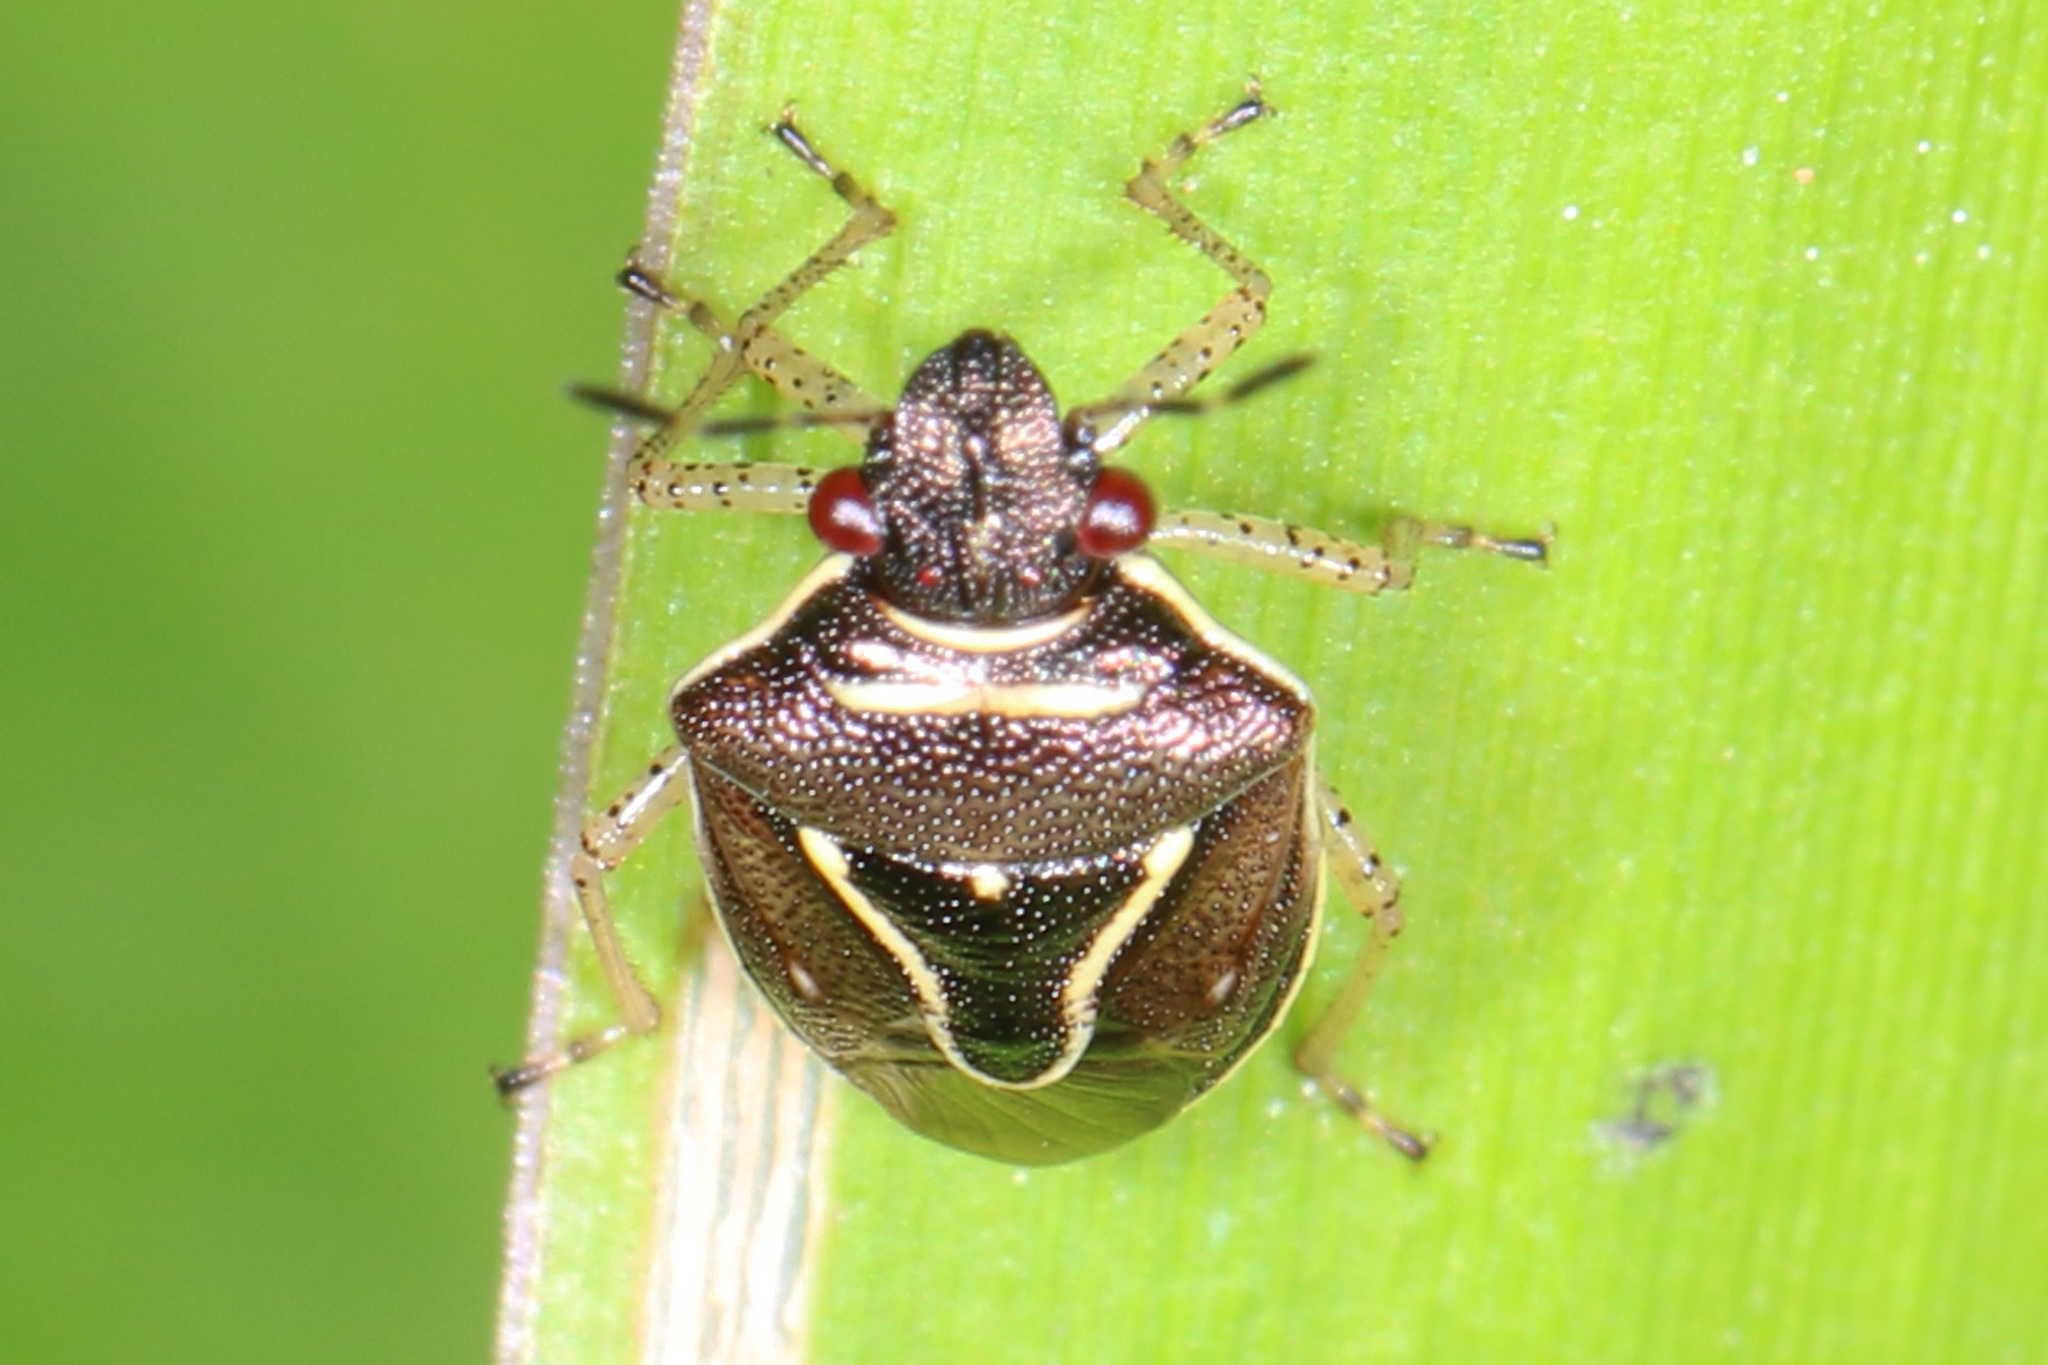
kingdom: Animalia
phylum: Arthropoda
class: Insecta
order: Hemiptera
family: Pentatomidae
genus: Mormidea
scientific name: Mormidea lugens
